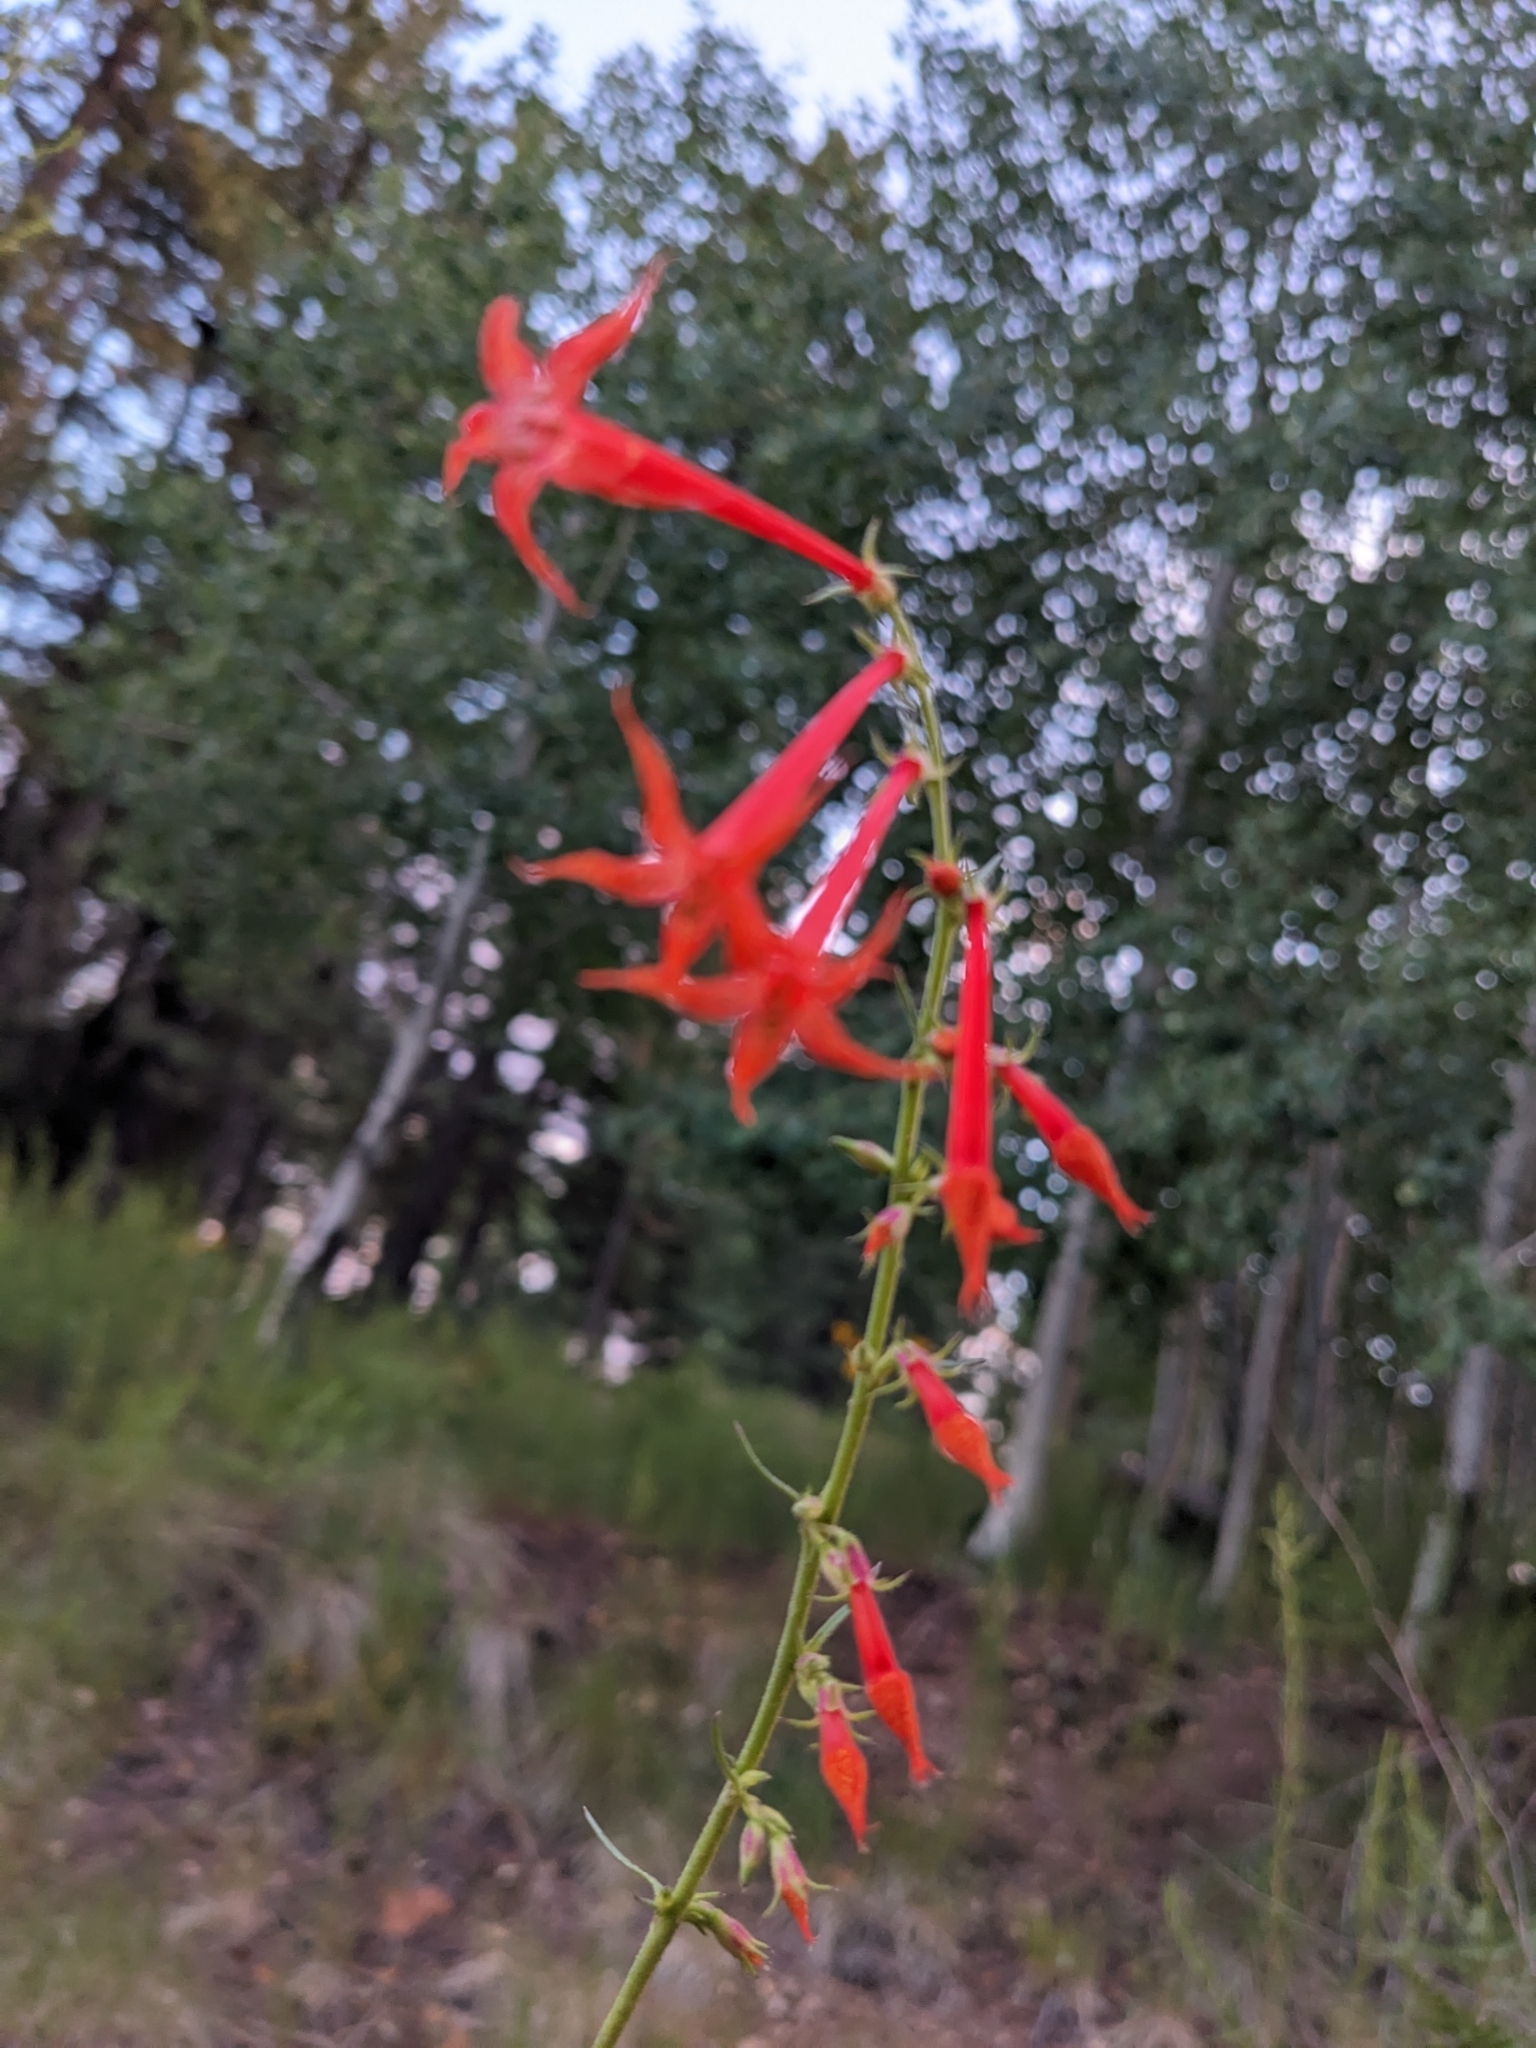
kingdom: Plantae
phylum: Tracheophyta
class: Magnoliopsida
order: Ericales
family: Polemoniaceae
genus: Ipomopsis
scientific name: Ipomopsis aggregata
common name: Scarlet gilia
